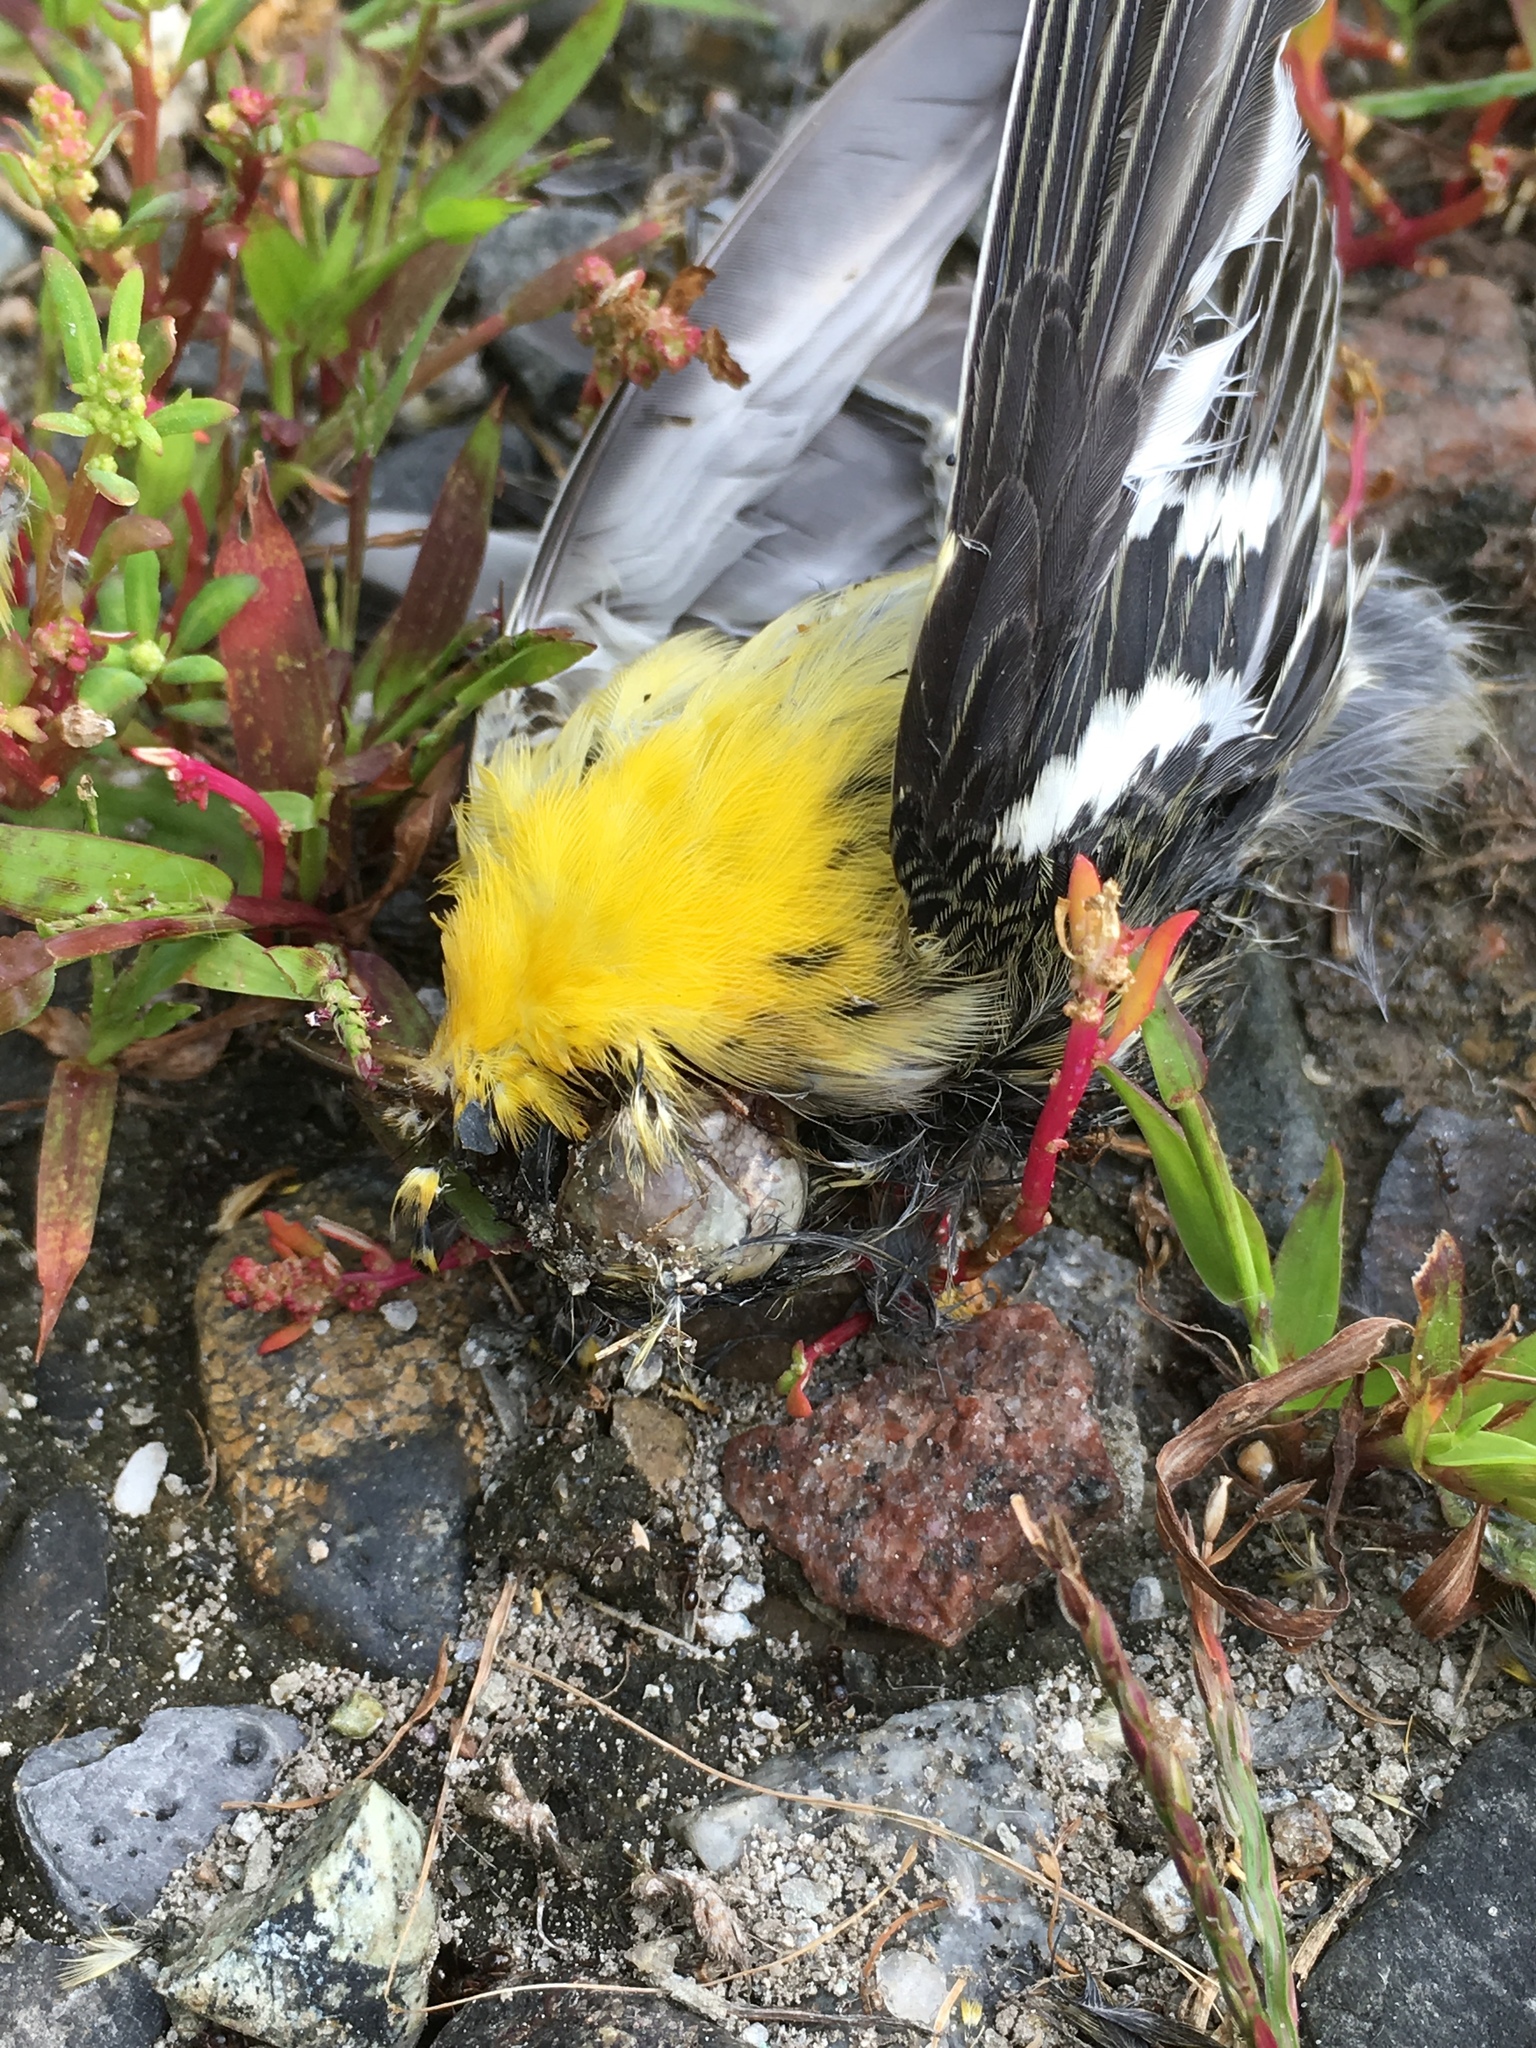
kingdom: Animalia
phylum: Chordata
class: Aves
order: Passeriformes
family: Parulidae
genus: Setophaga
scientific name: Setophaga fusca
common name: Blackburnian warbler
